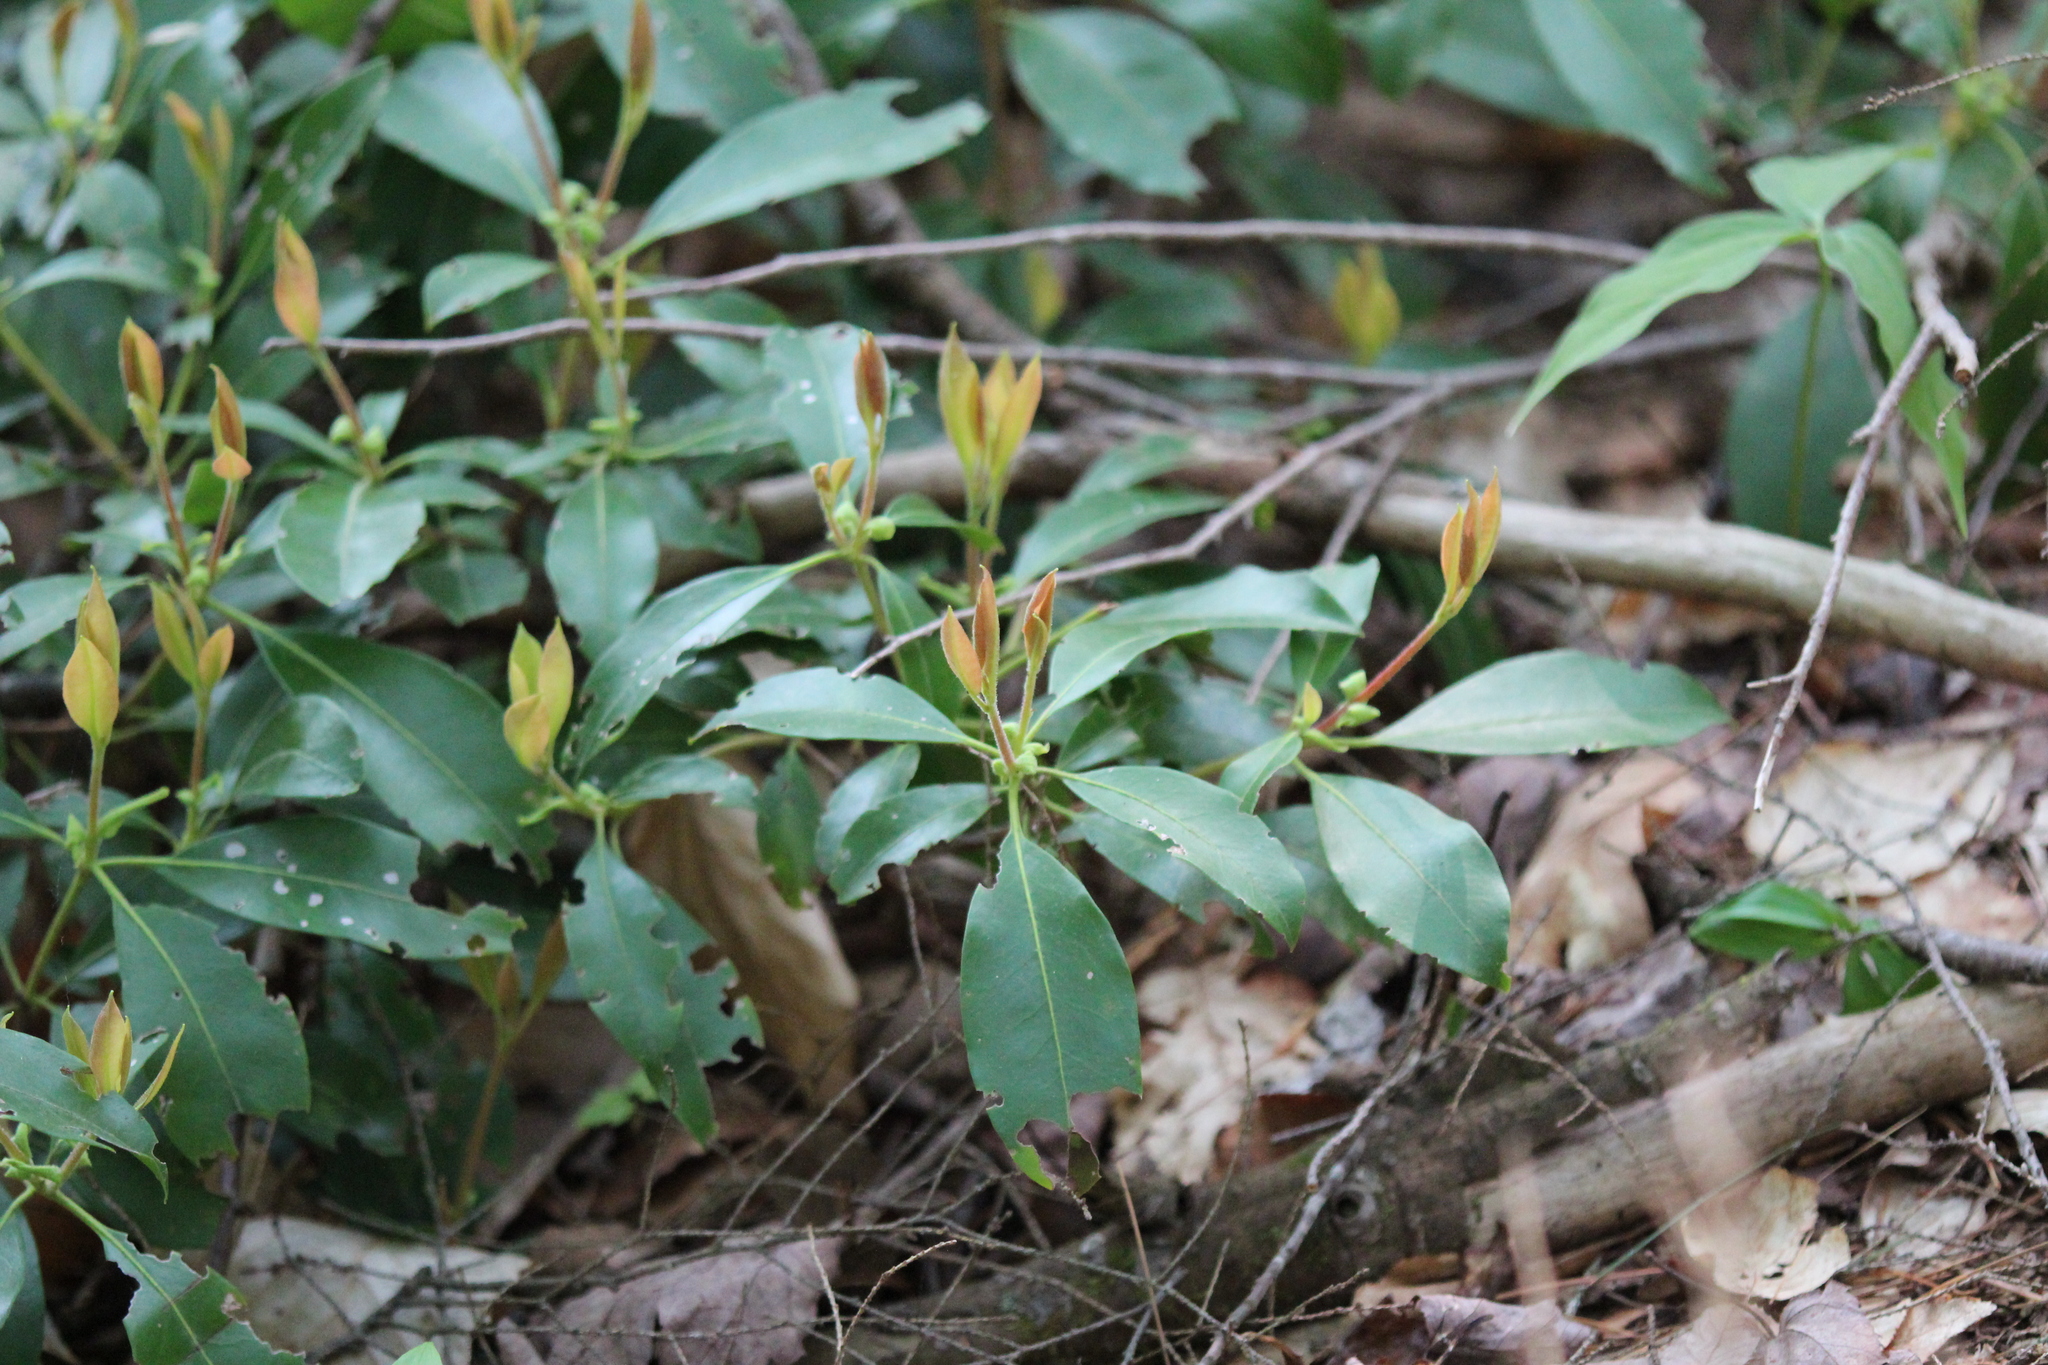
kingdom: Plantae
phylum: Tracheophyta
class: Magnoliopsida
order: Ericales
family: Ericaceae
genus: Kalmia
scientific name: Kalmia latifolia
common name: Mountain-laurel
